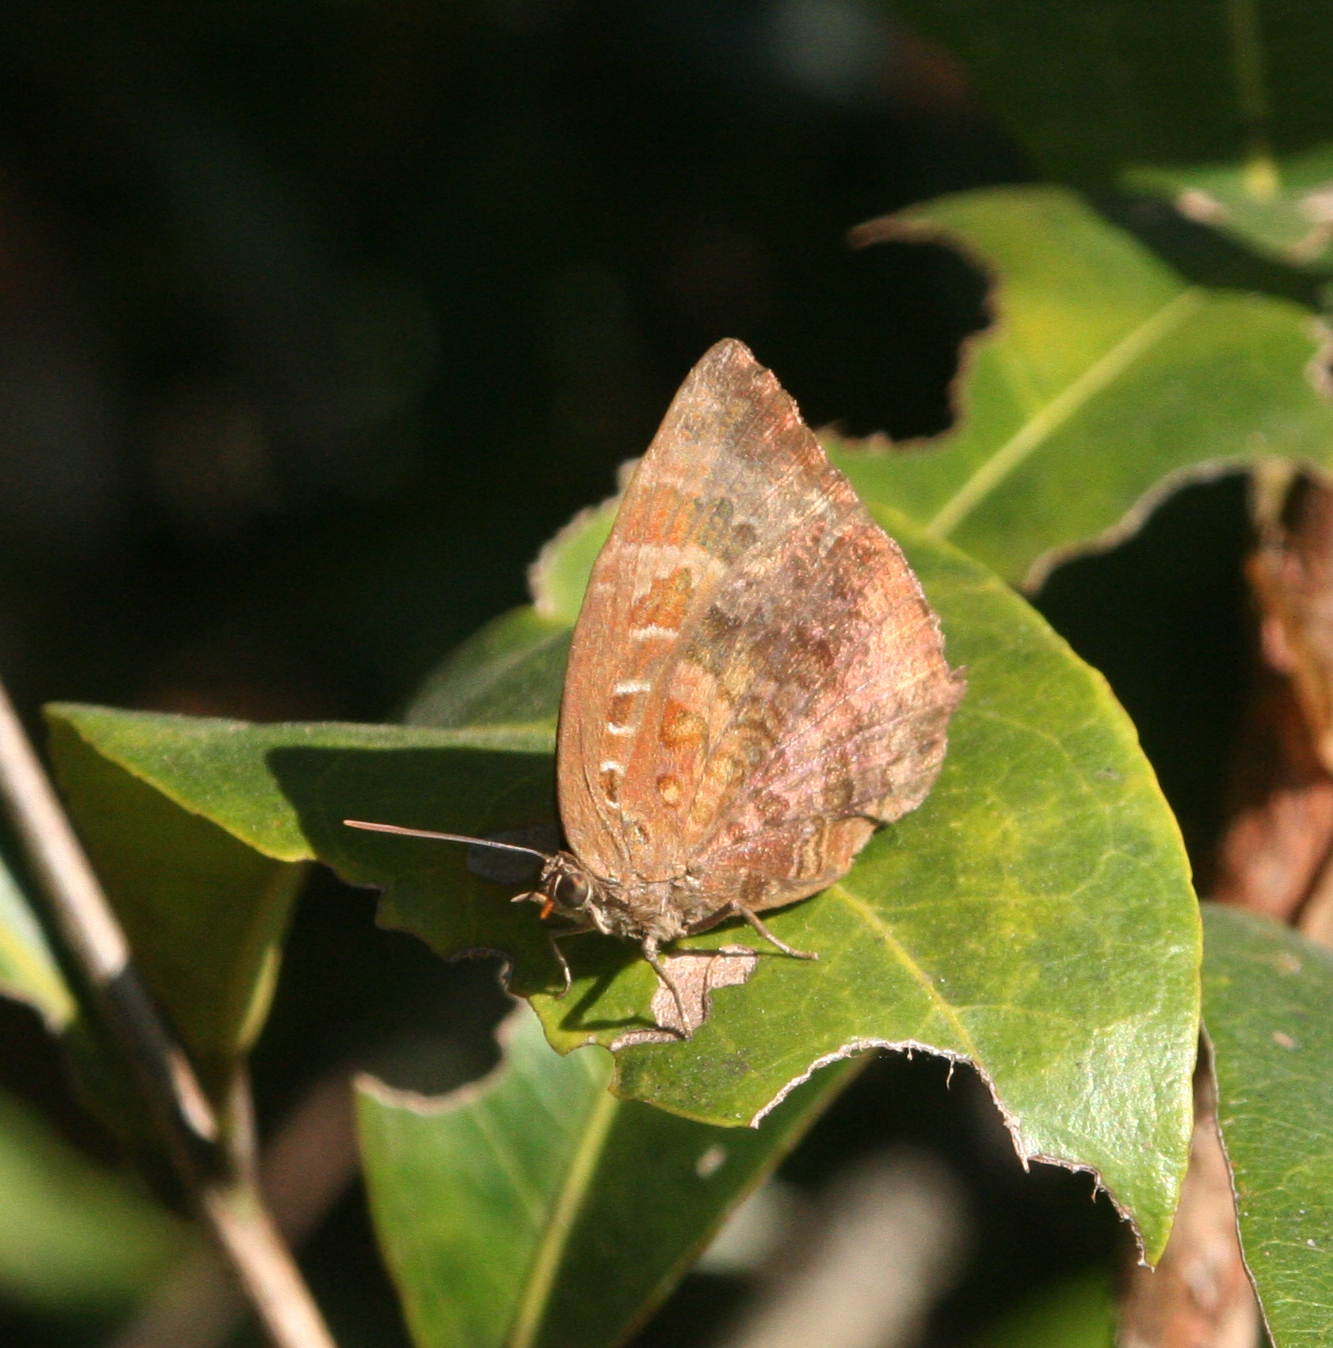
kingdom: Animalia
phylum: Arthropoda
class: Insecta
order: Lepidoptera
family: Lycaenidae
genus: Arhopala
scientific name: Arhopala centaurus
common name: Dull oak-blue
